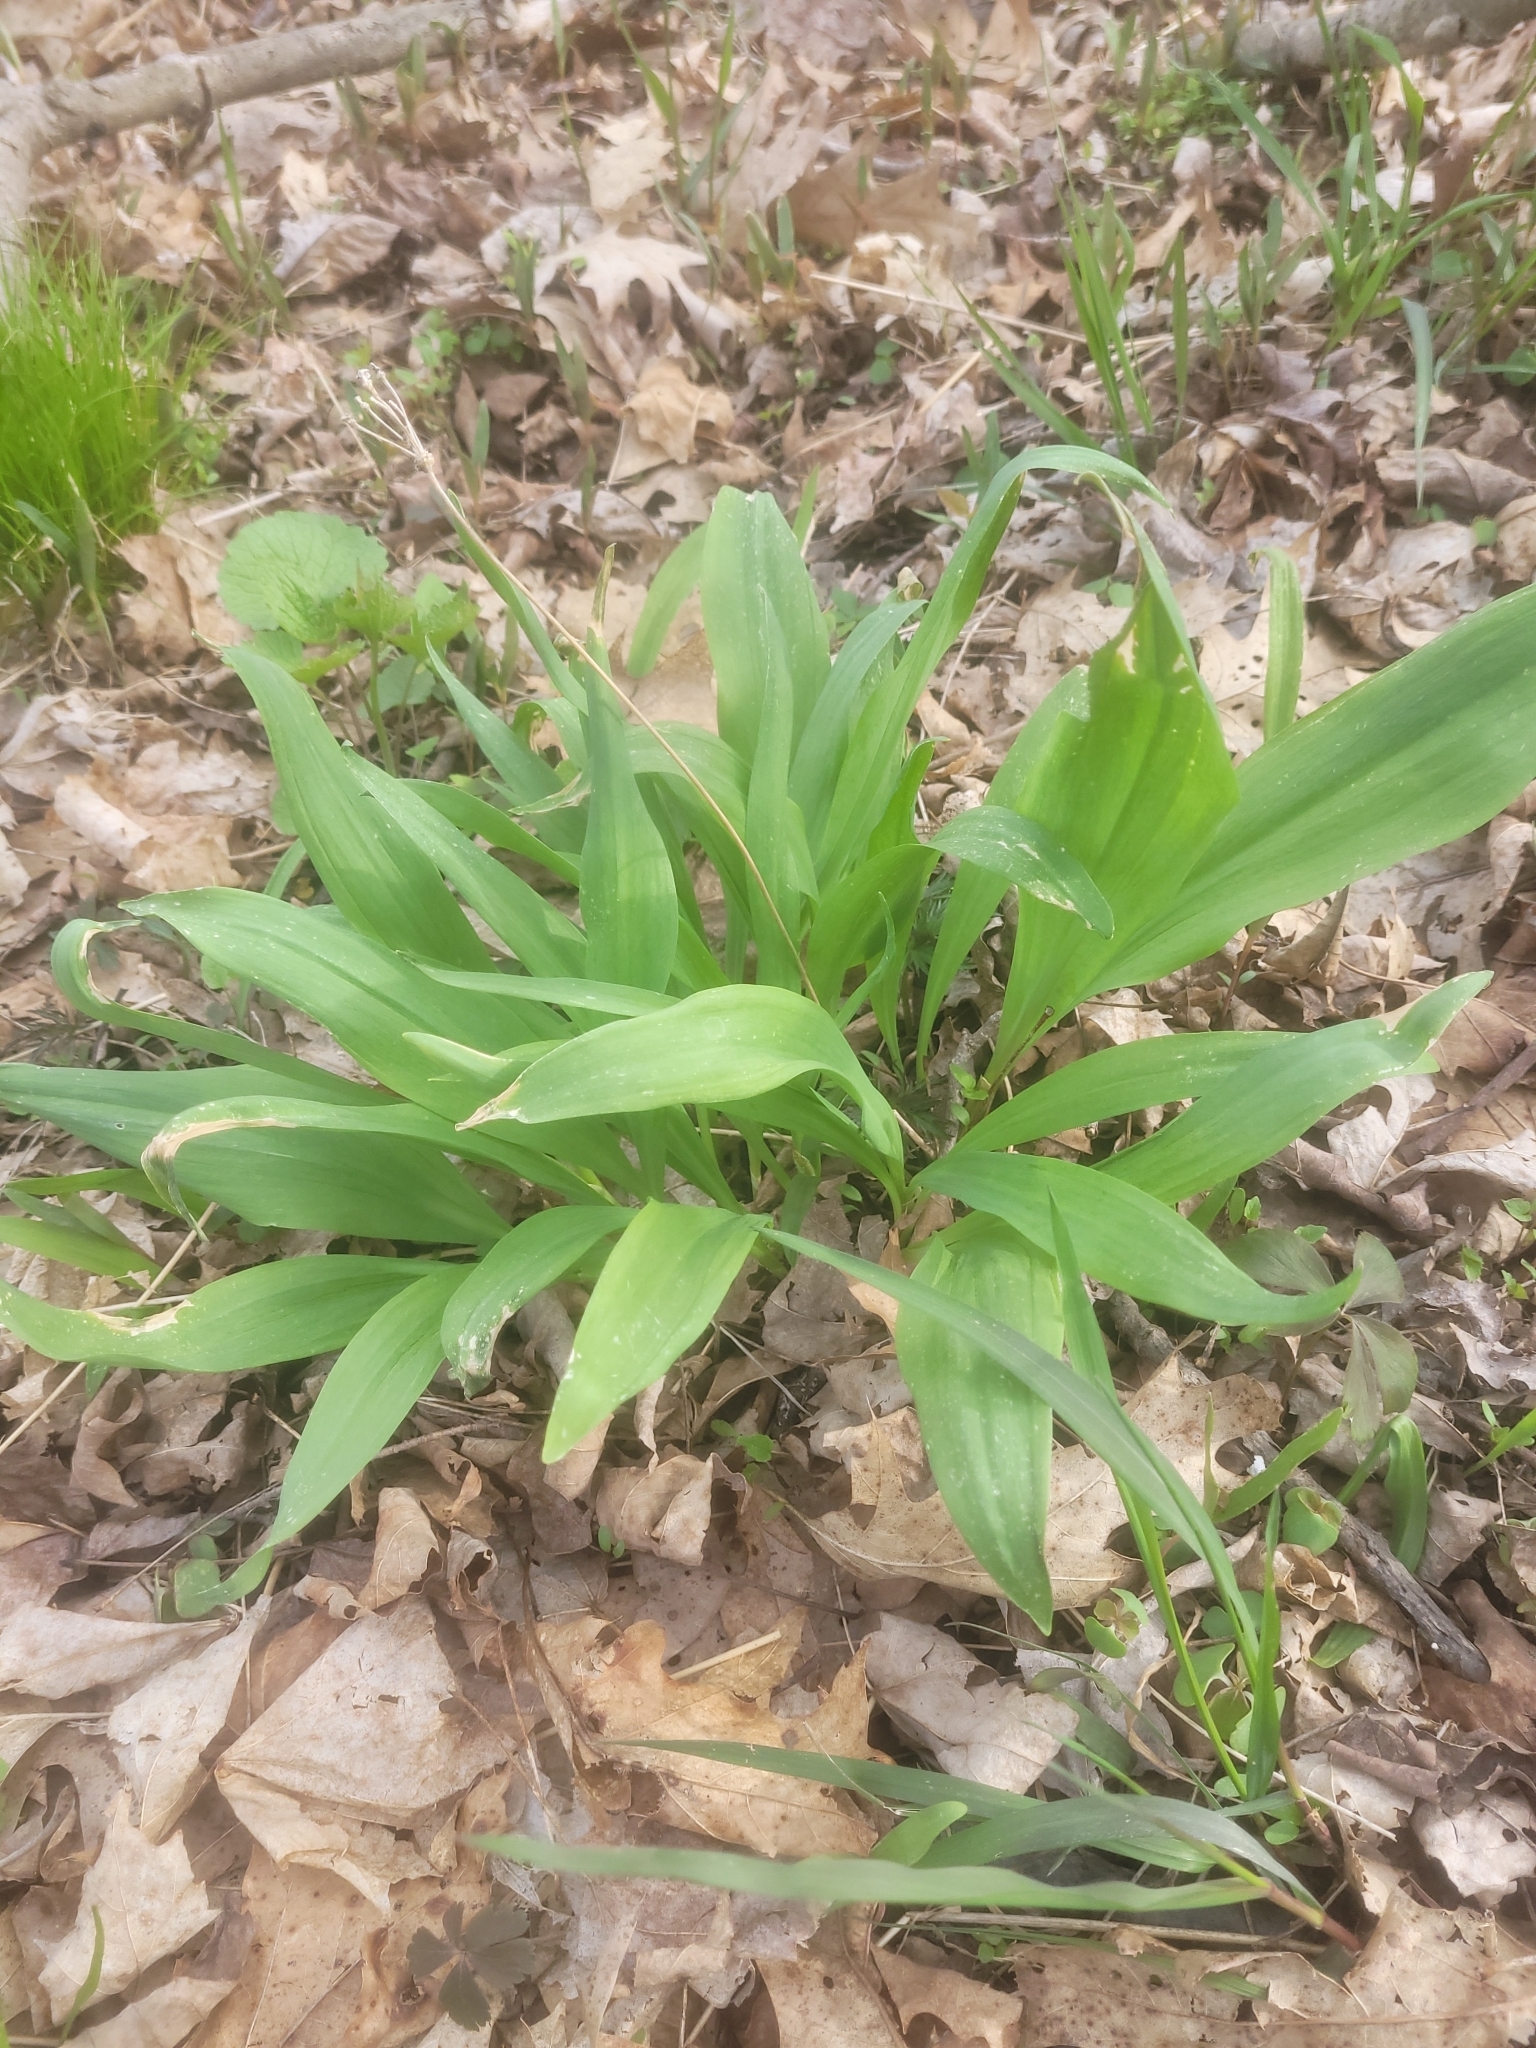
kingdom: Plantae
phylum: Tracheophyta
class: Liliopsida
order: Asparagales
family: Amaryllidaceae
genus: Allium
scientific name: Allium tricoccum
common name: Ramp
